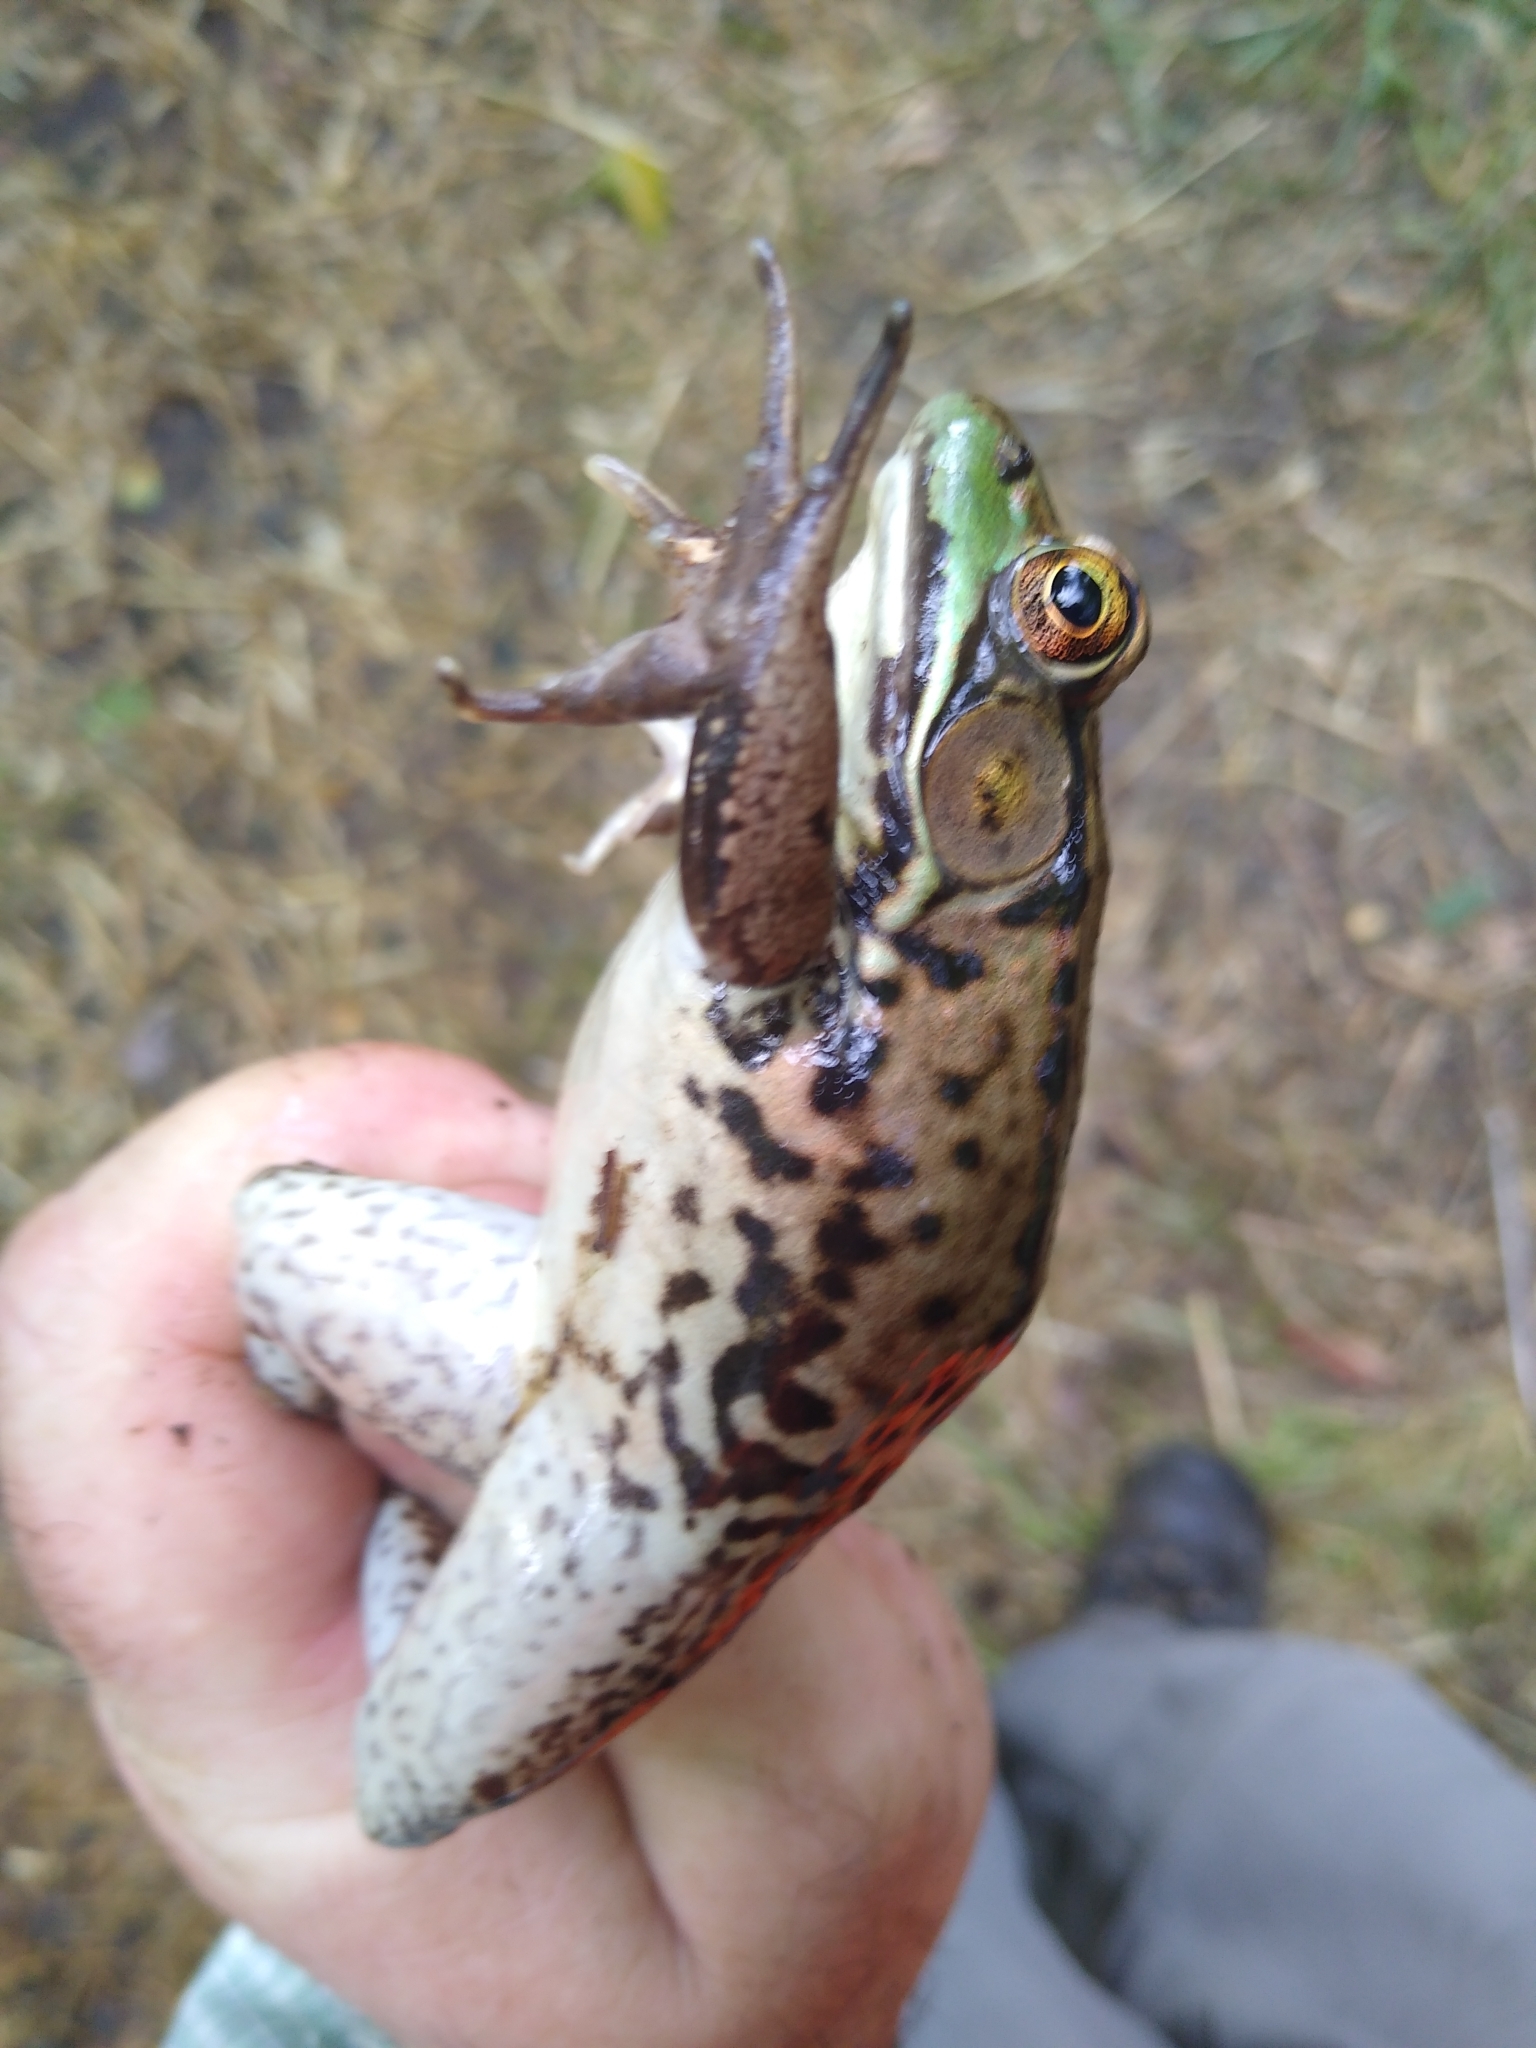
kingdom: Animalia
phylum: Chordata
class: Amphibia
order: Anura
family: Ranidae
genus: Lithobates
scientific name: Lithobates clamitans
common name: Green frog
